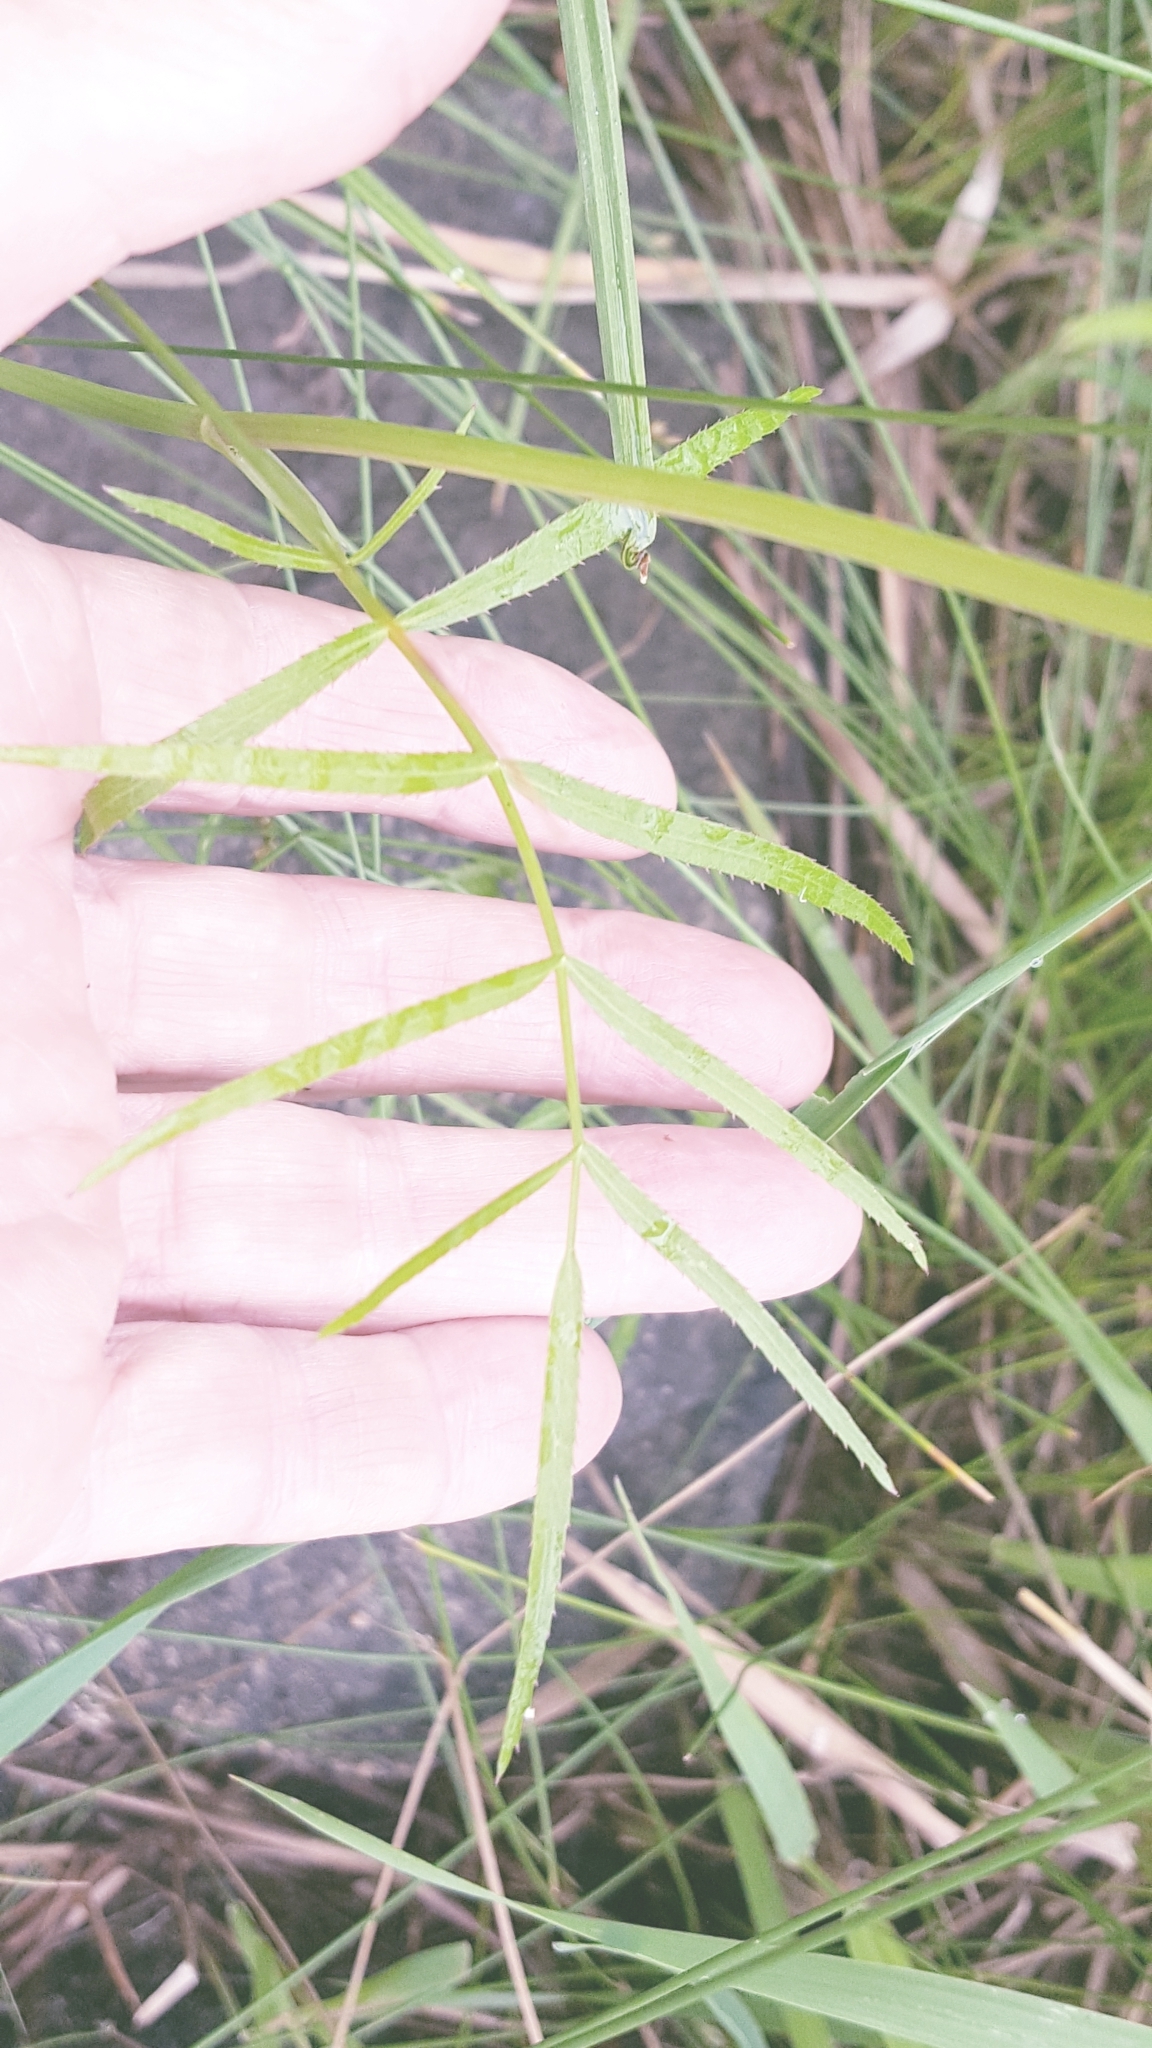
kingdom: Plantae
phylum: Tracheophyta
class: Magnoliopsida
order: Apiales
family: Apiaceae
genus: Sium
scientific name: Sium suave
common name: Hemlock water-parsnip
